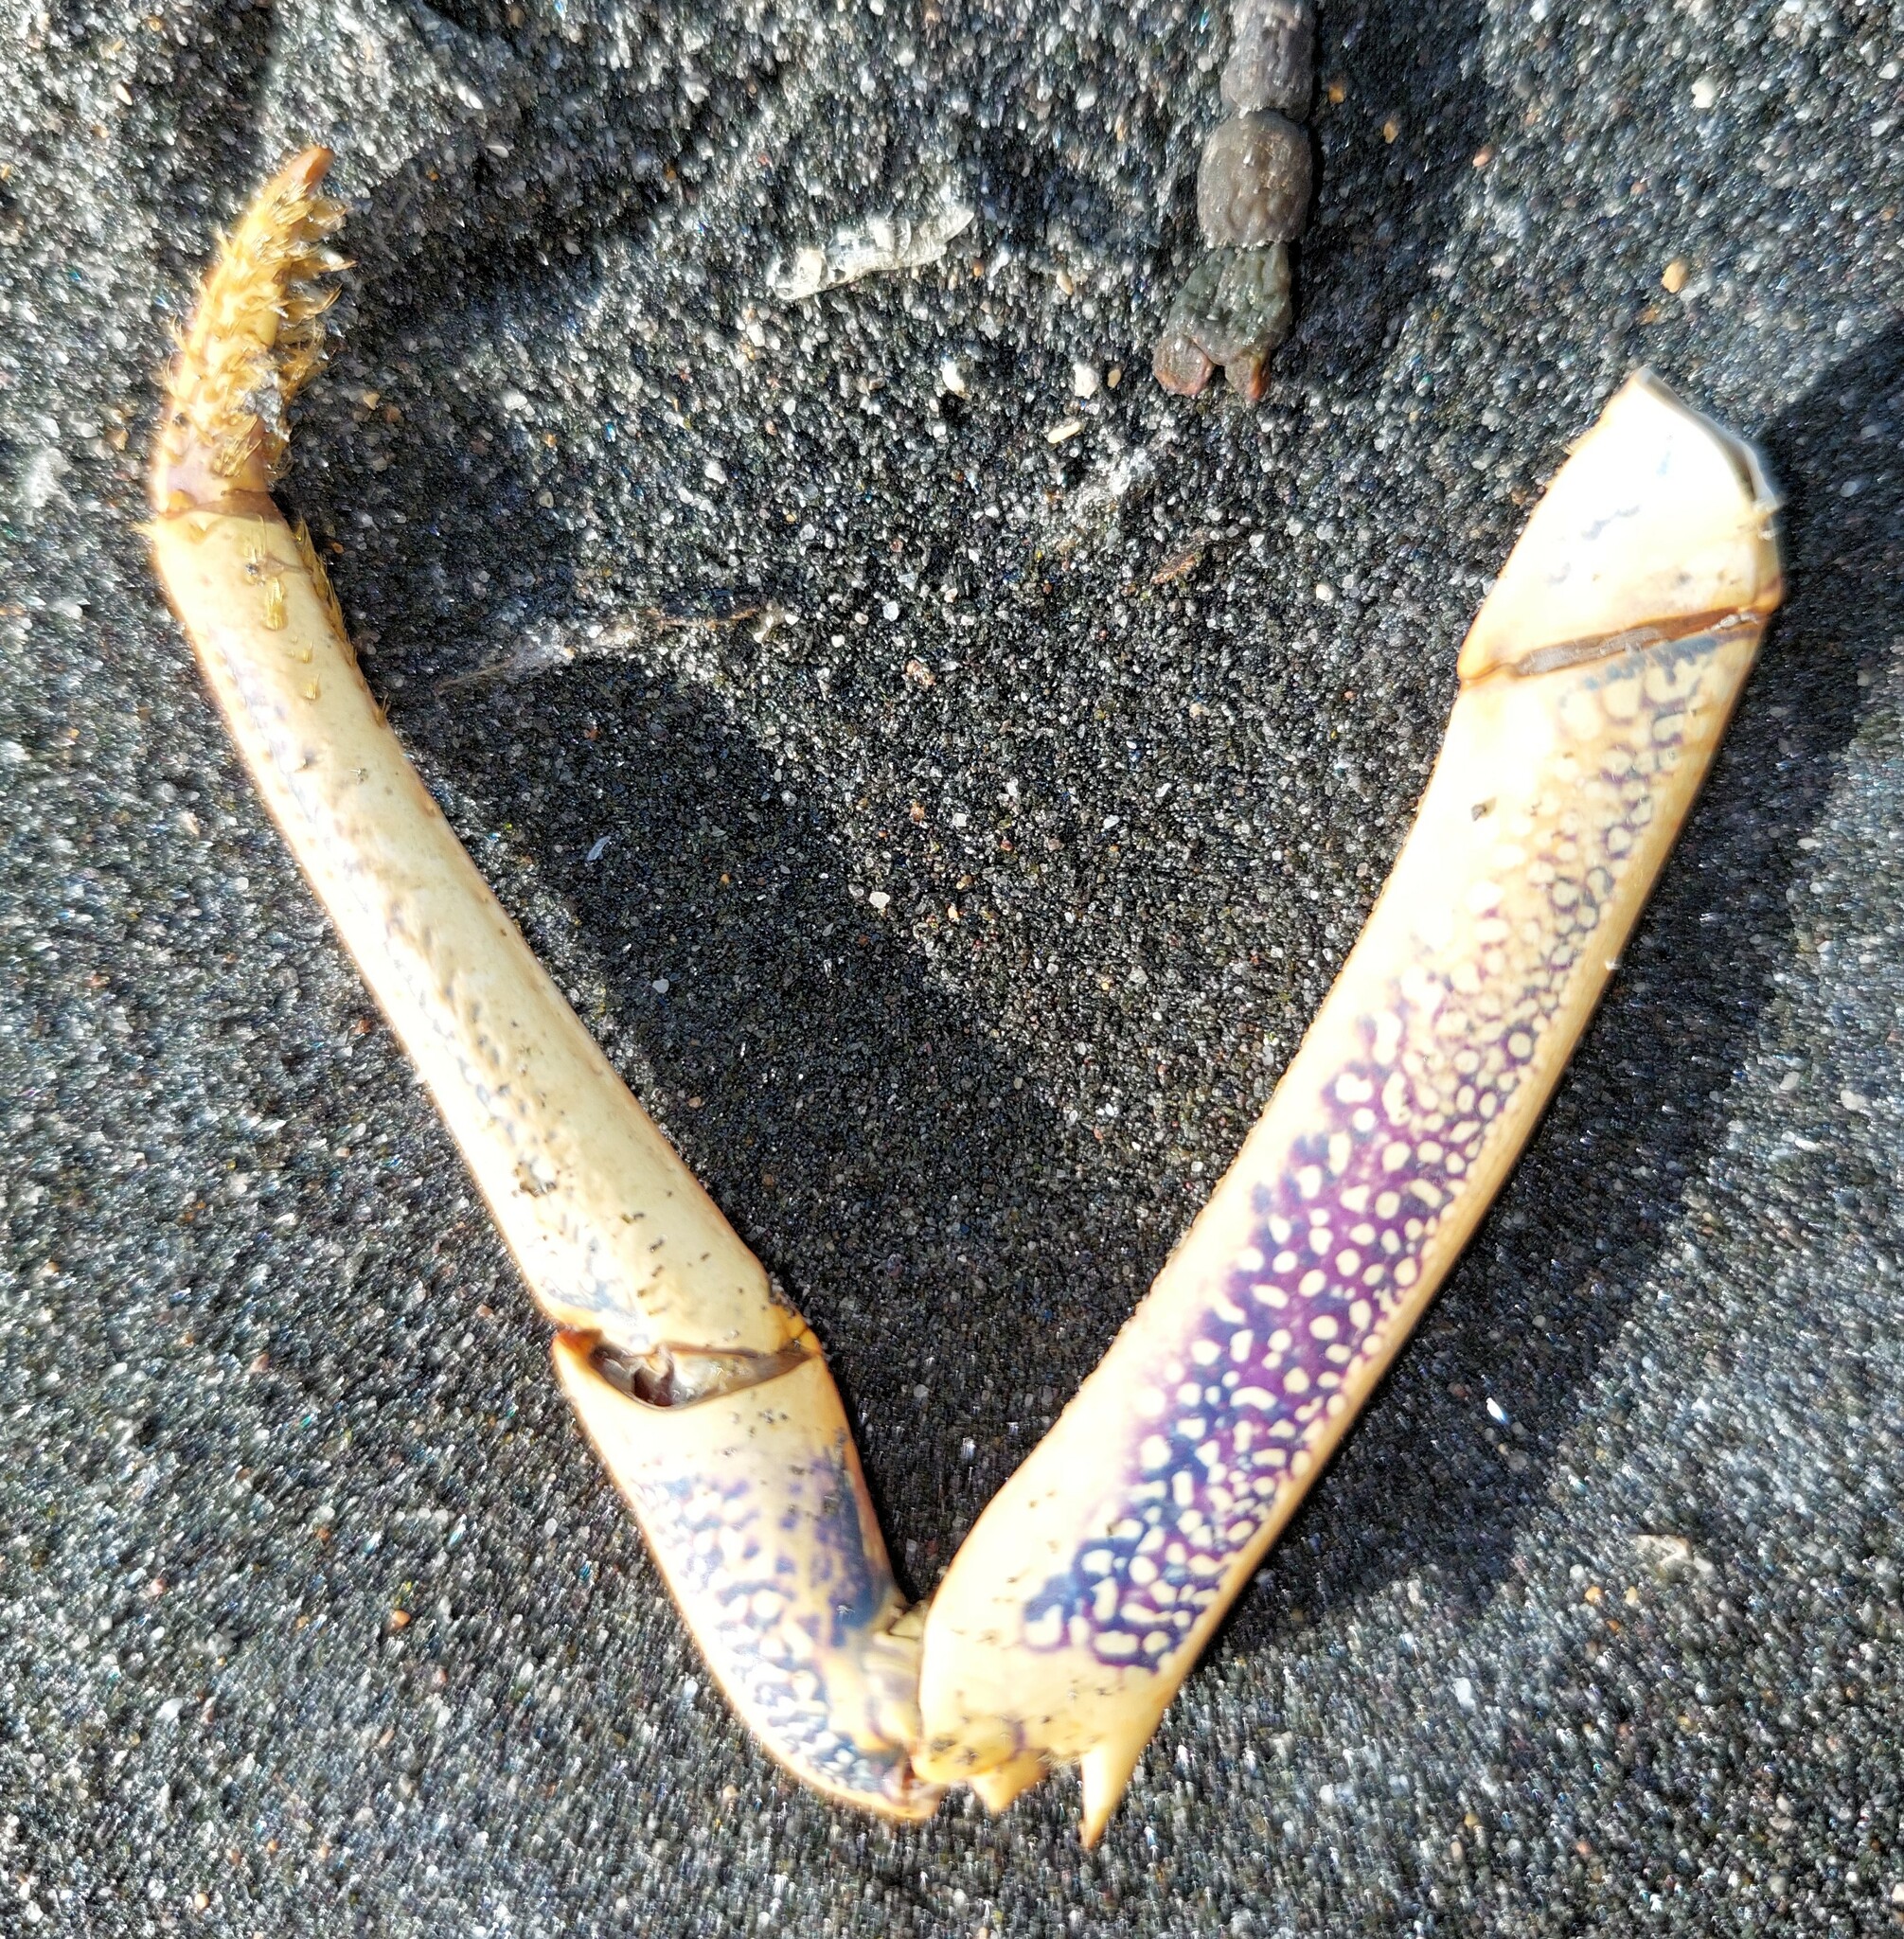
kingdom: Animalia
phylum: Arthropoda
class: Malacostraca
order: Decapoda
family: Palinuridae
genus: Jasus
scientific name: Jasus edwardsii
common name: Red rock lobster
